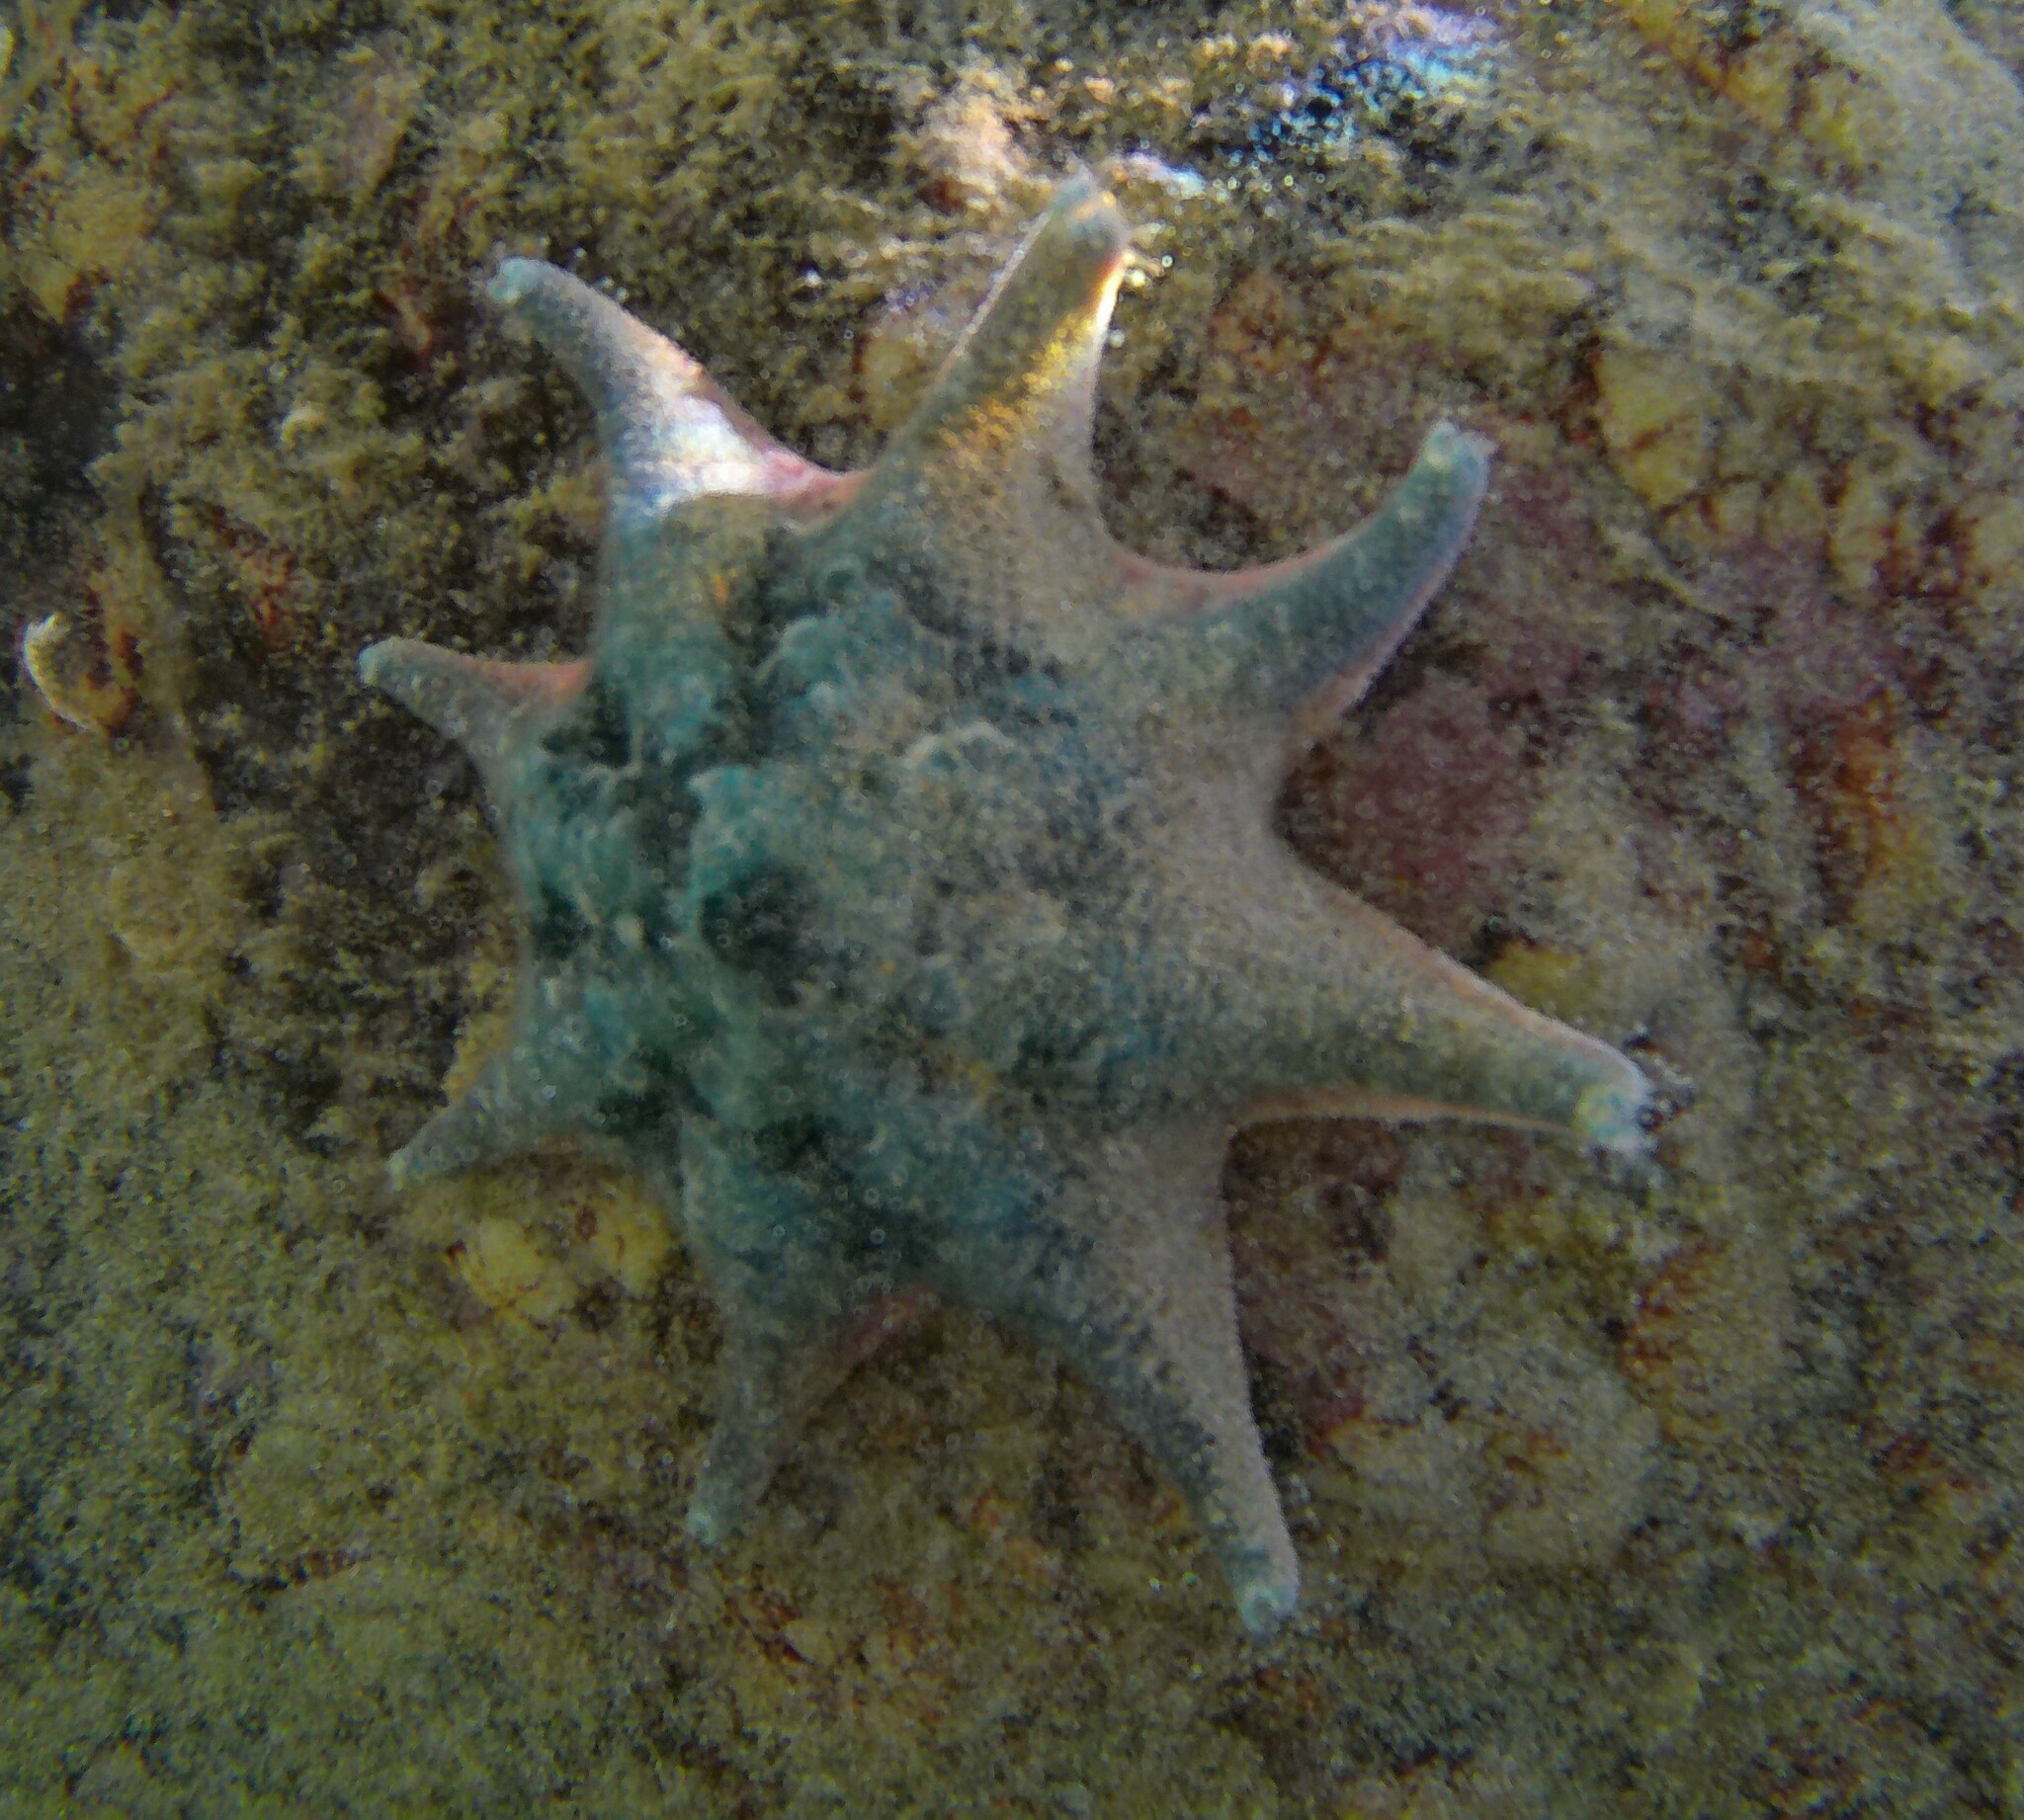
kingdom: Animalia
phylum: Echinodermata
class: Asteroidea
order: Valvatida
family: Asterinidae
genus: Meridiastra
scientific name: Meridiastra calcar
